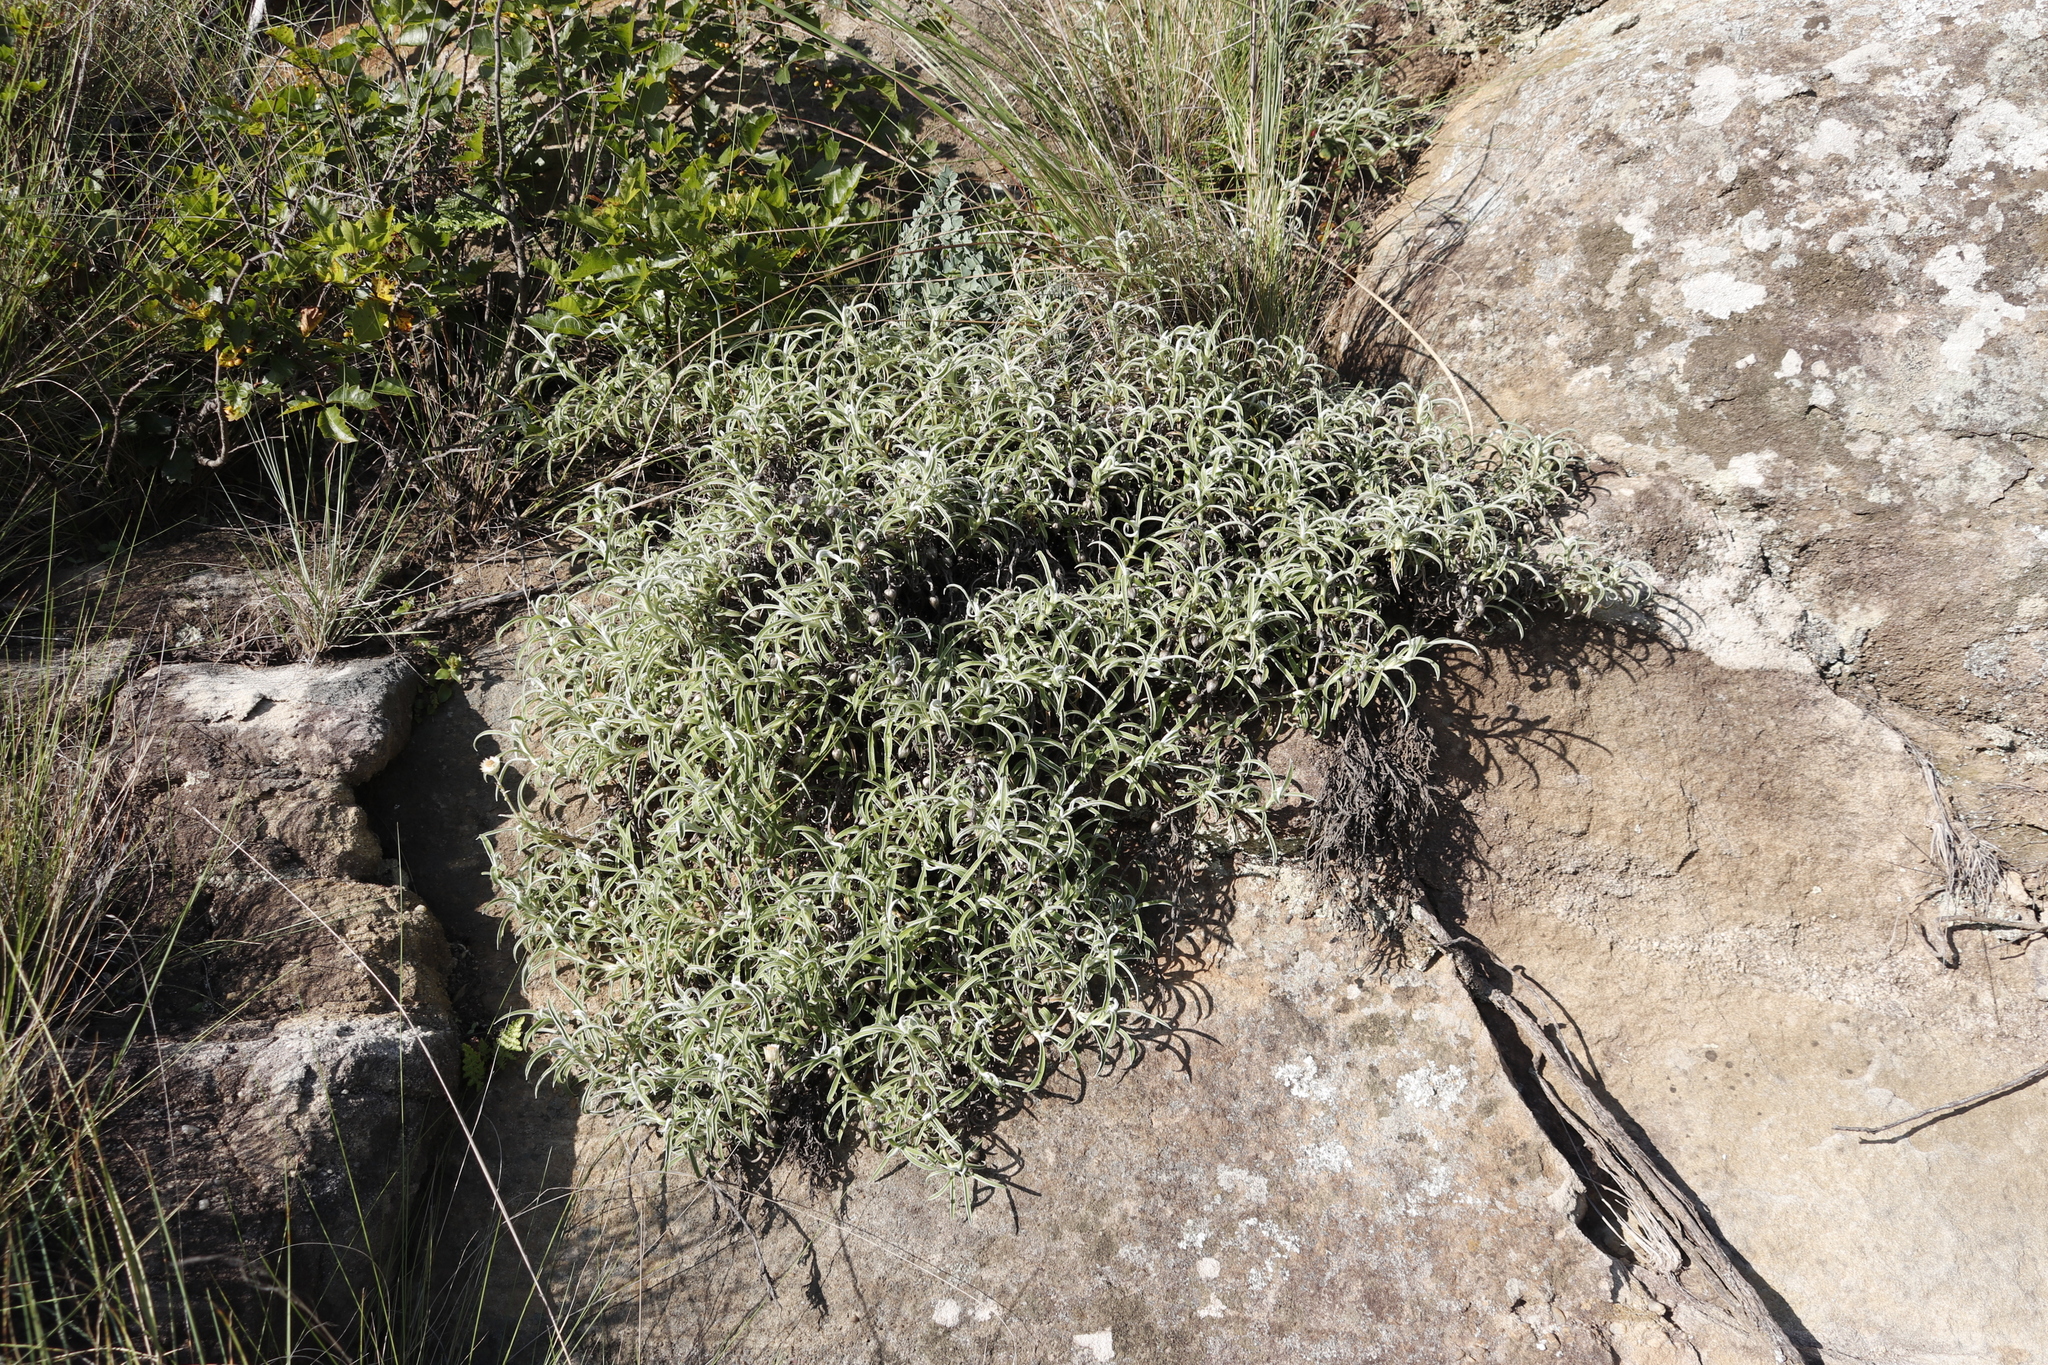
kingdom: Plantae
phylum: Tracheophyta
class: Magnoliopsida
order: Asterales
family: Asteraceae
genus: Helichrysum
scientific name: Helichrysum chionosphaerum
